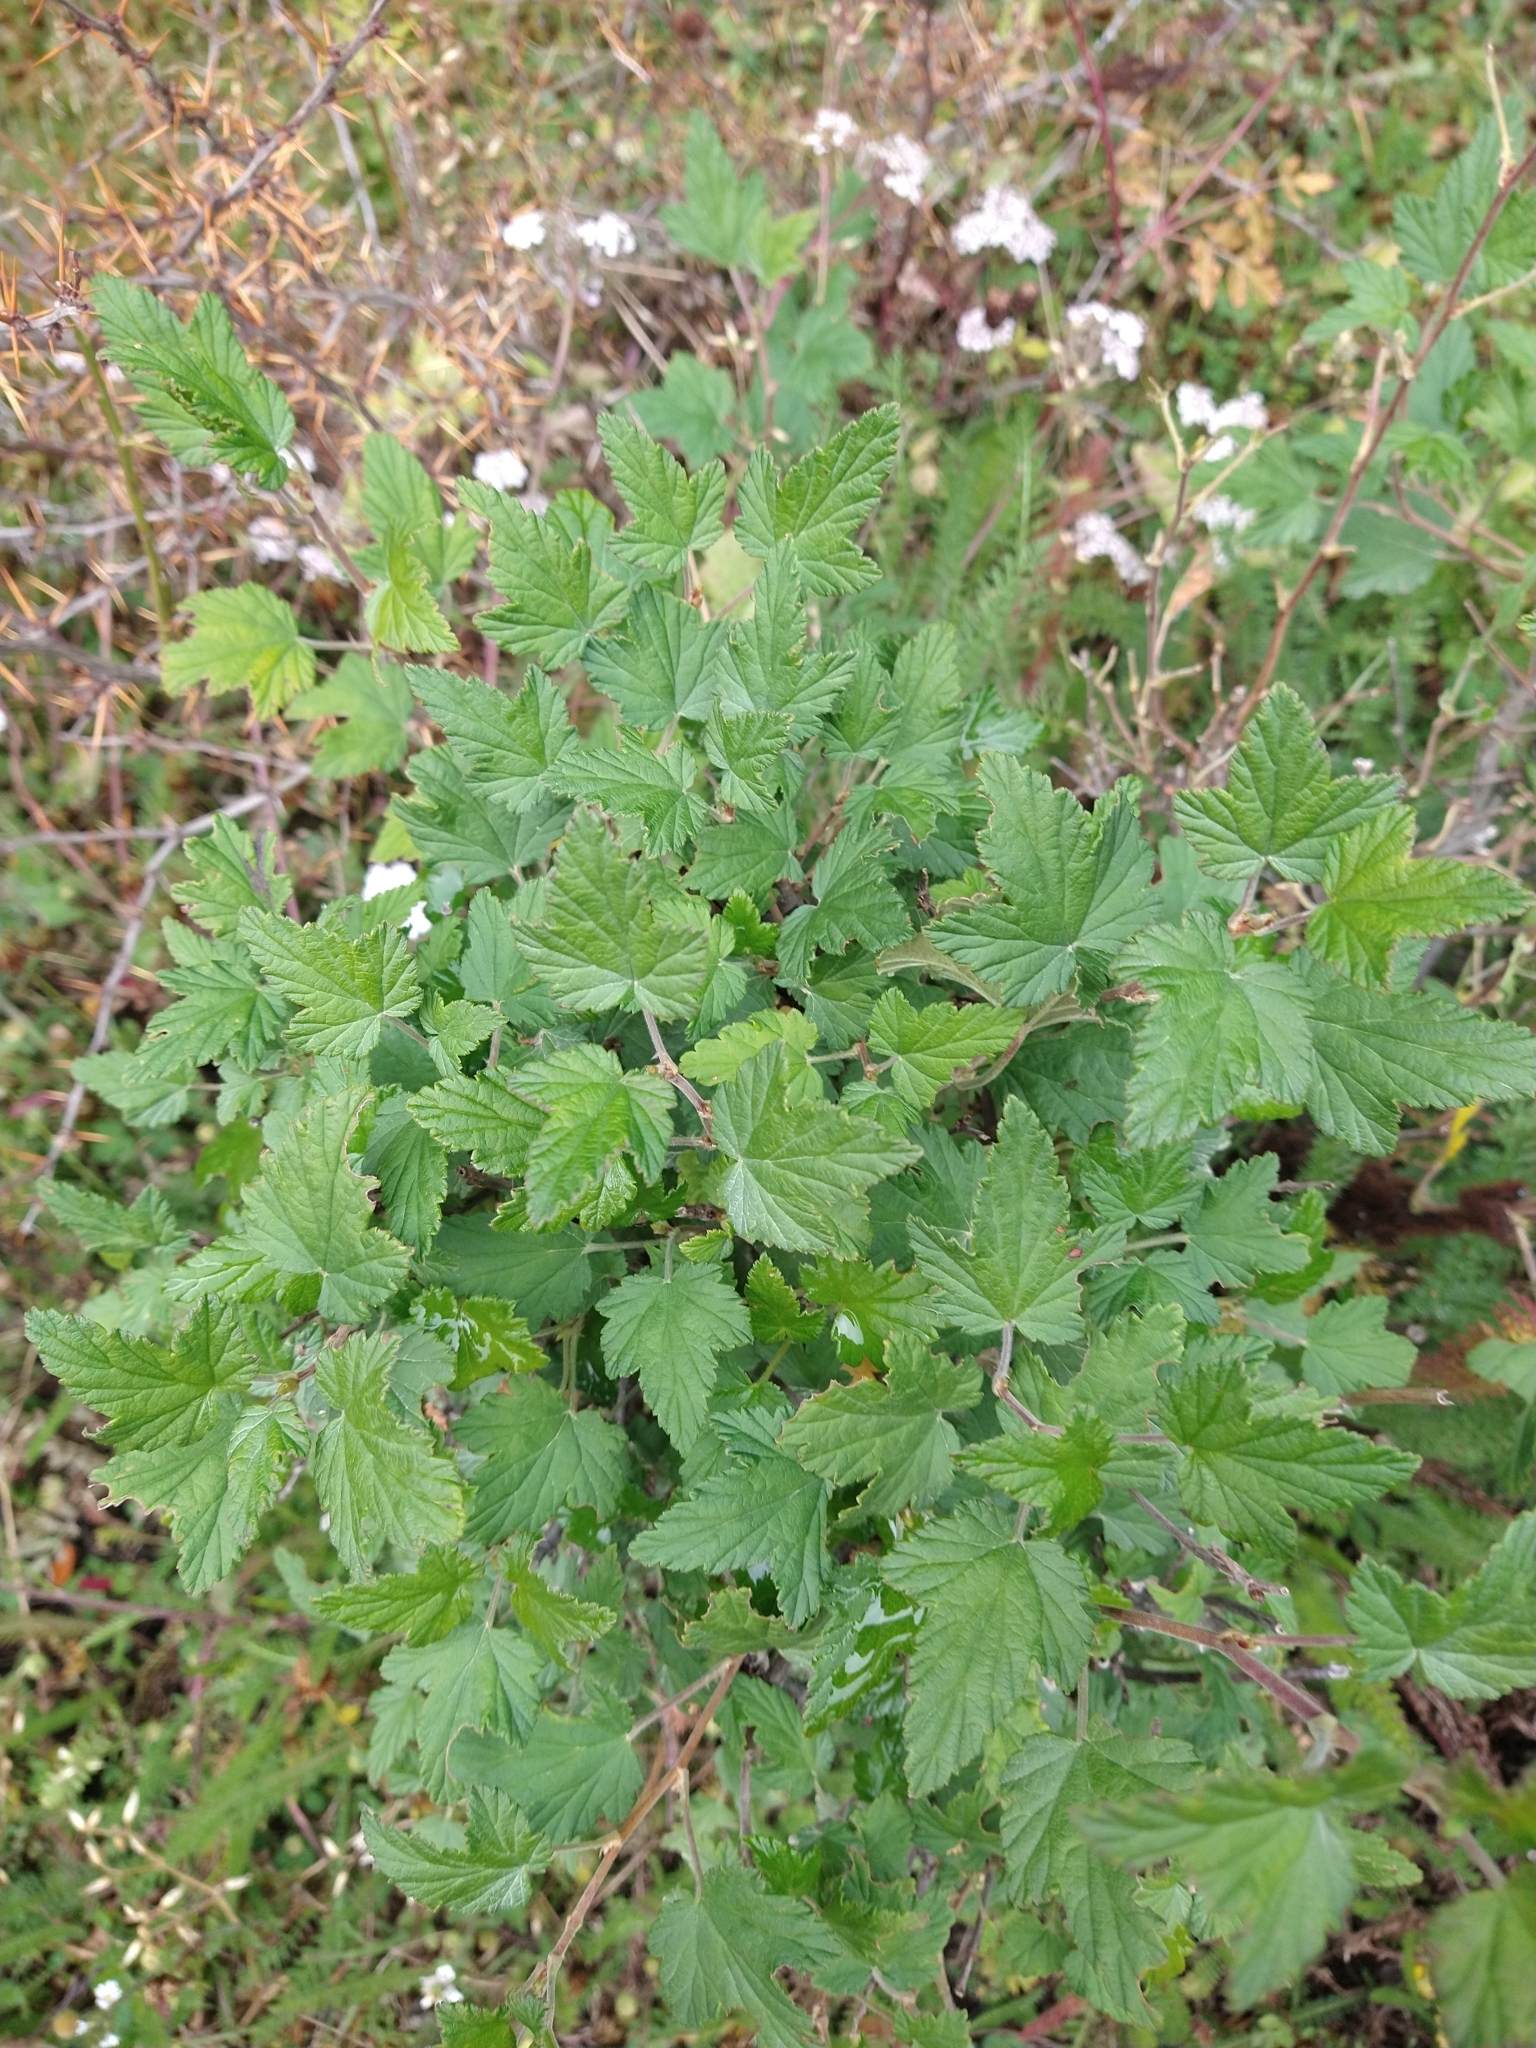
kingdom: Plantae
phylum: Tracheophyta
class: Magnoliopsida
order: Saxifragales
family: Grossulariaceae
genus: Ribes
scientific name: Ribes magellanicum
